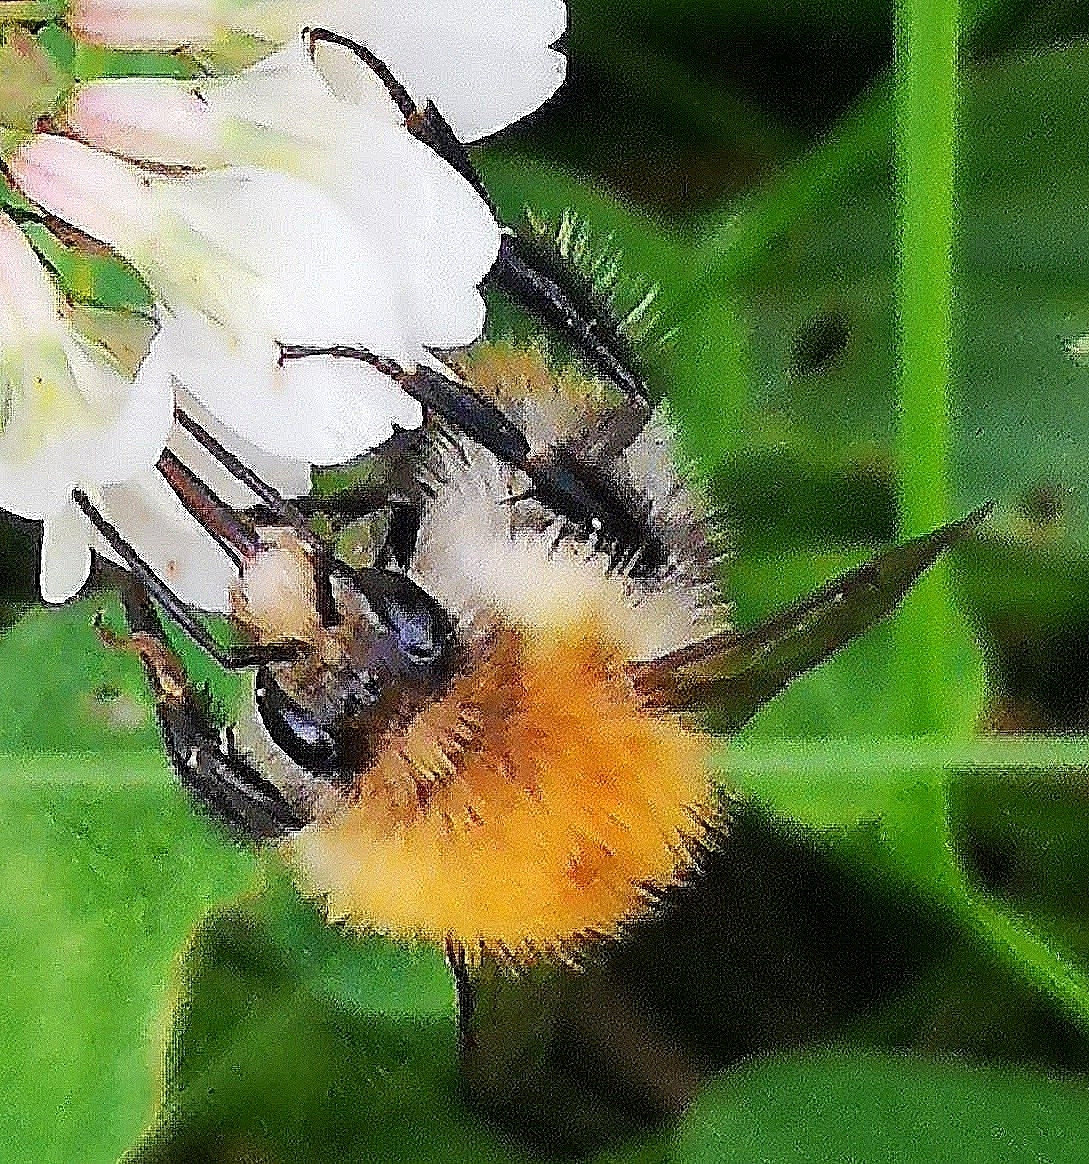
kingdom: Animalia
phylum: Arthropoda
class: Insecta
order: Hymenoptera
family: Apidae
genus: Bombus
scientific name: Bombus pascuorum
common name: Common carder bee
